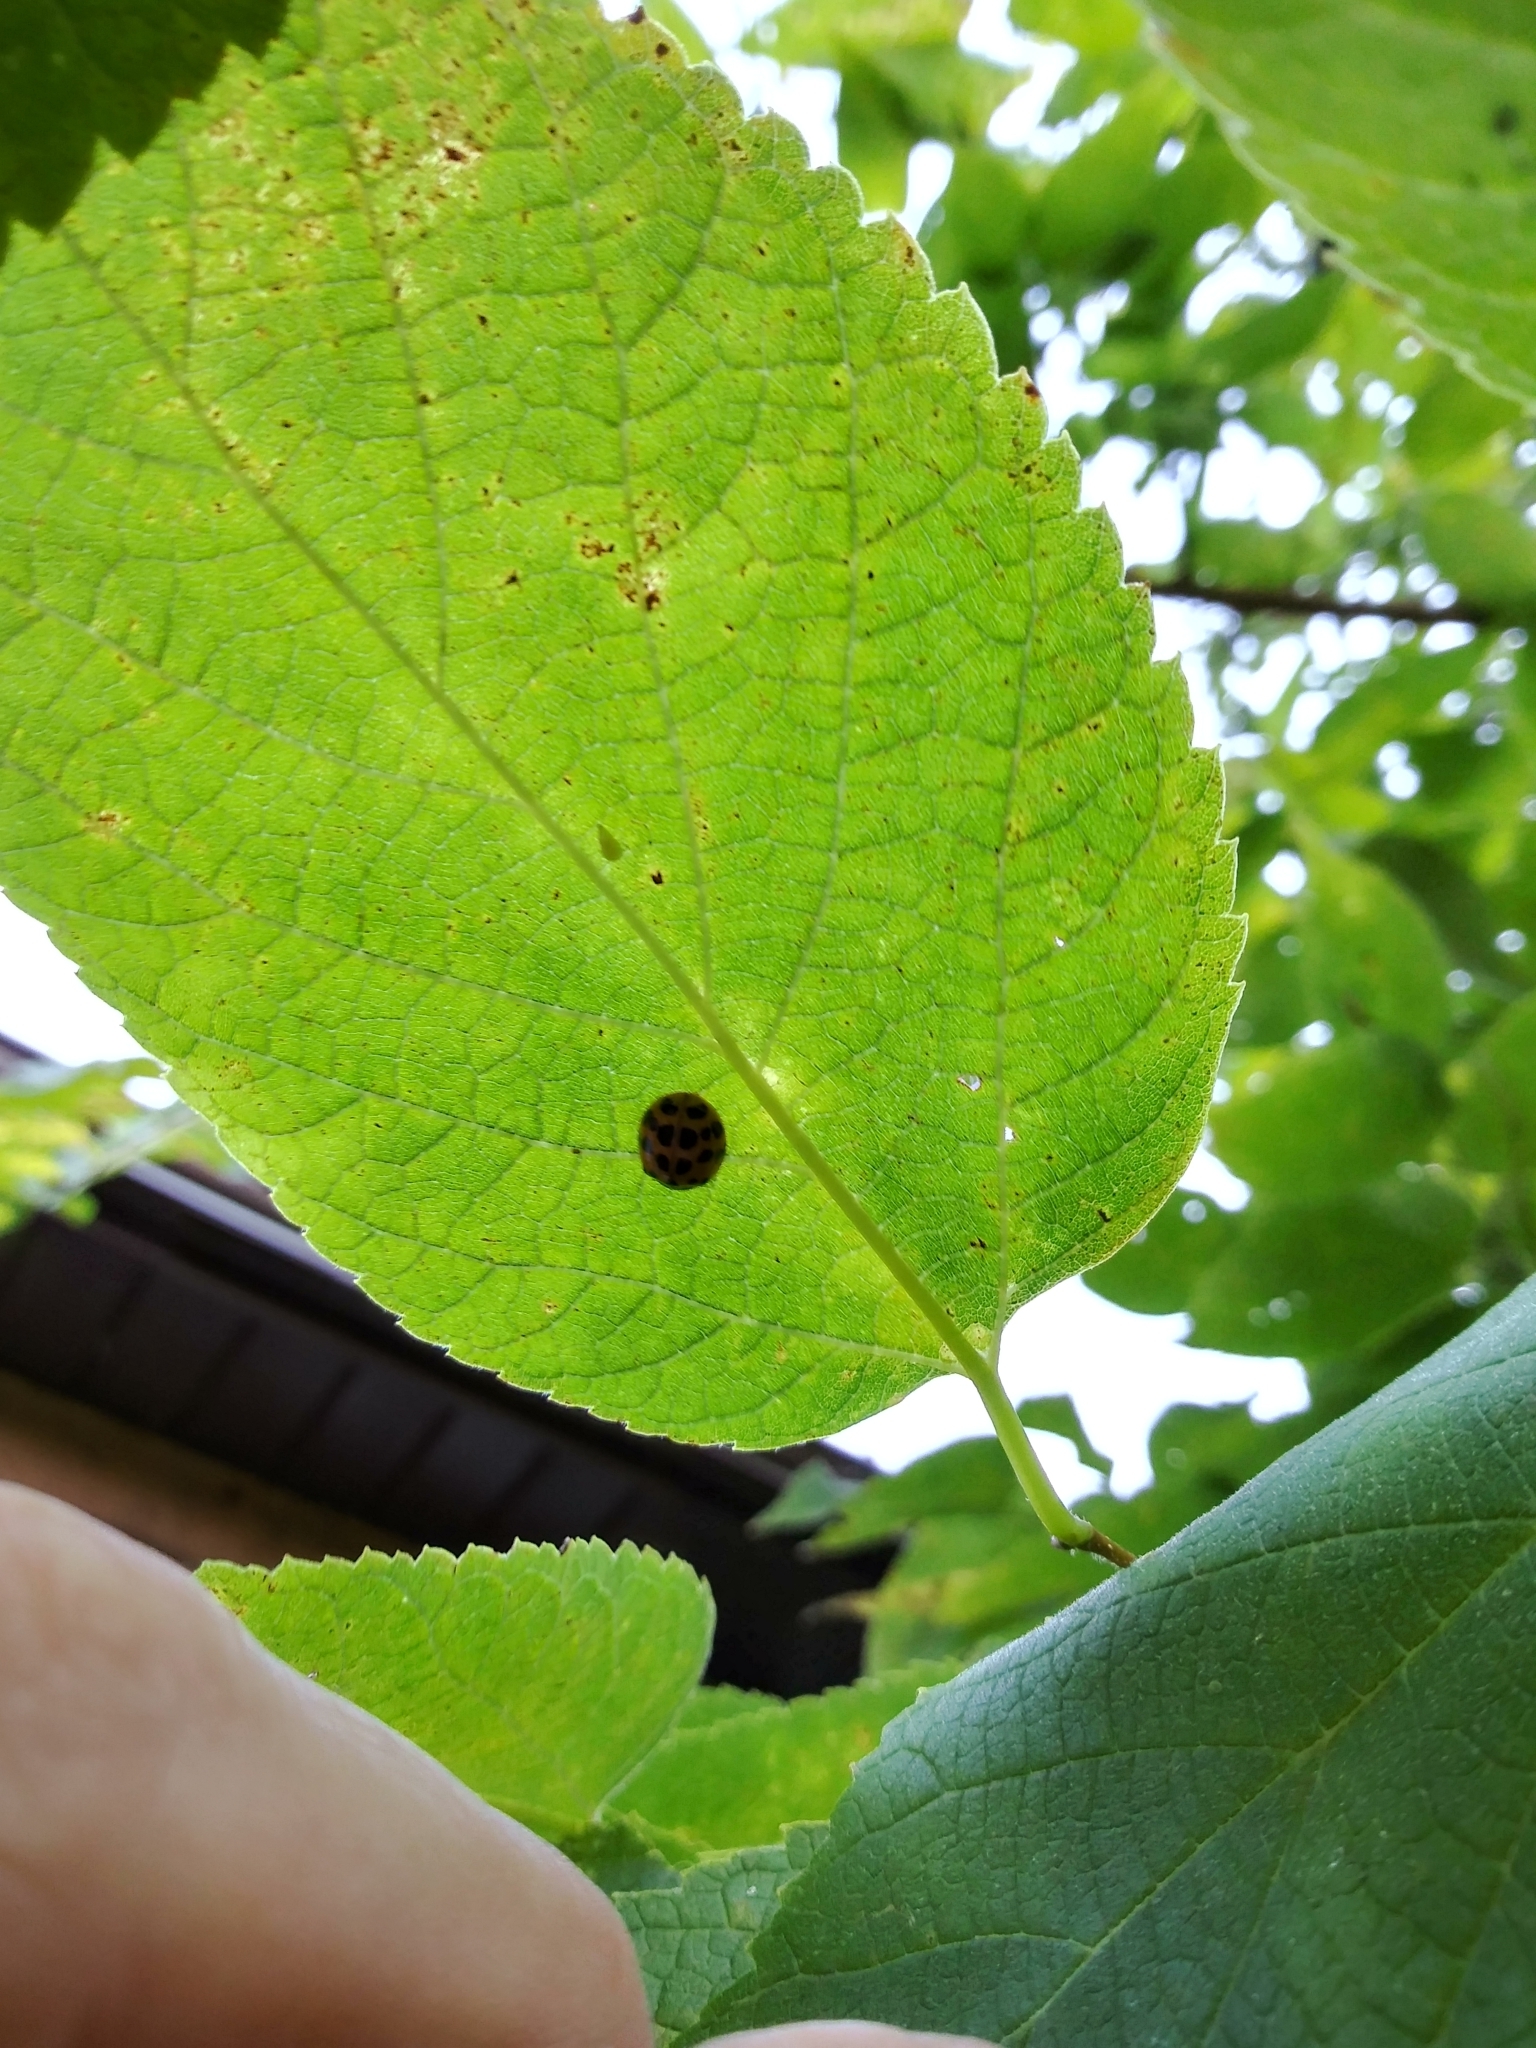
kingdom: Animalia
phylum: Arthropoda
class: Insecta
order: Coleoptera
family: Coccinellidae
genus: Harmonia
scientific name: Harmonia axyridis
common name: Harlequin ladybird
